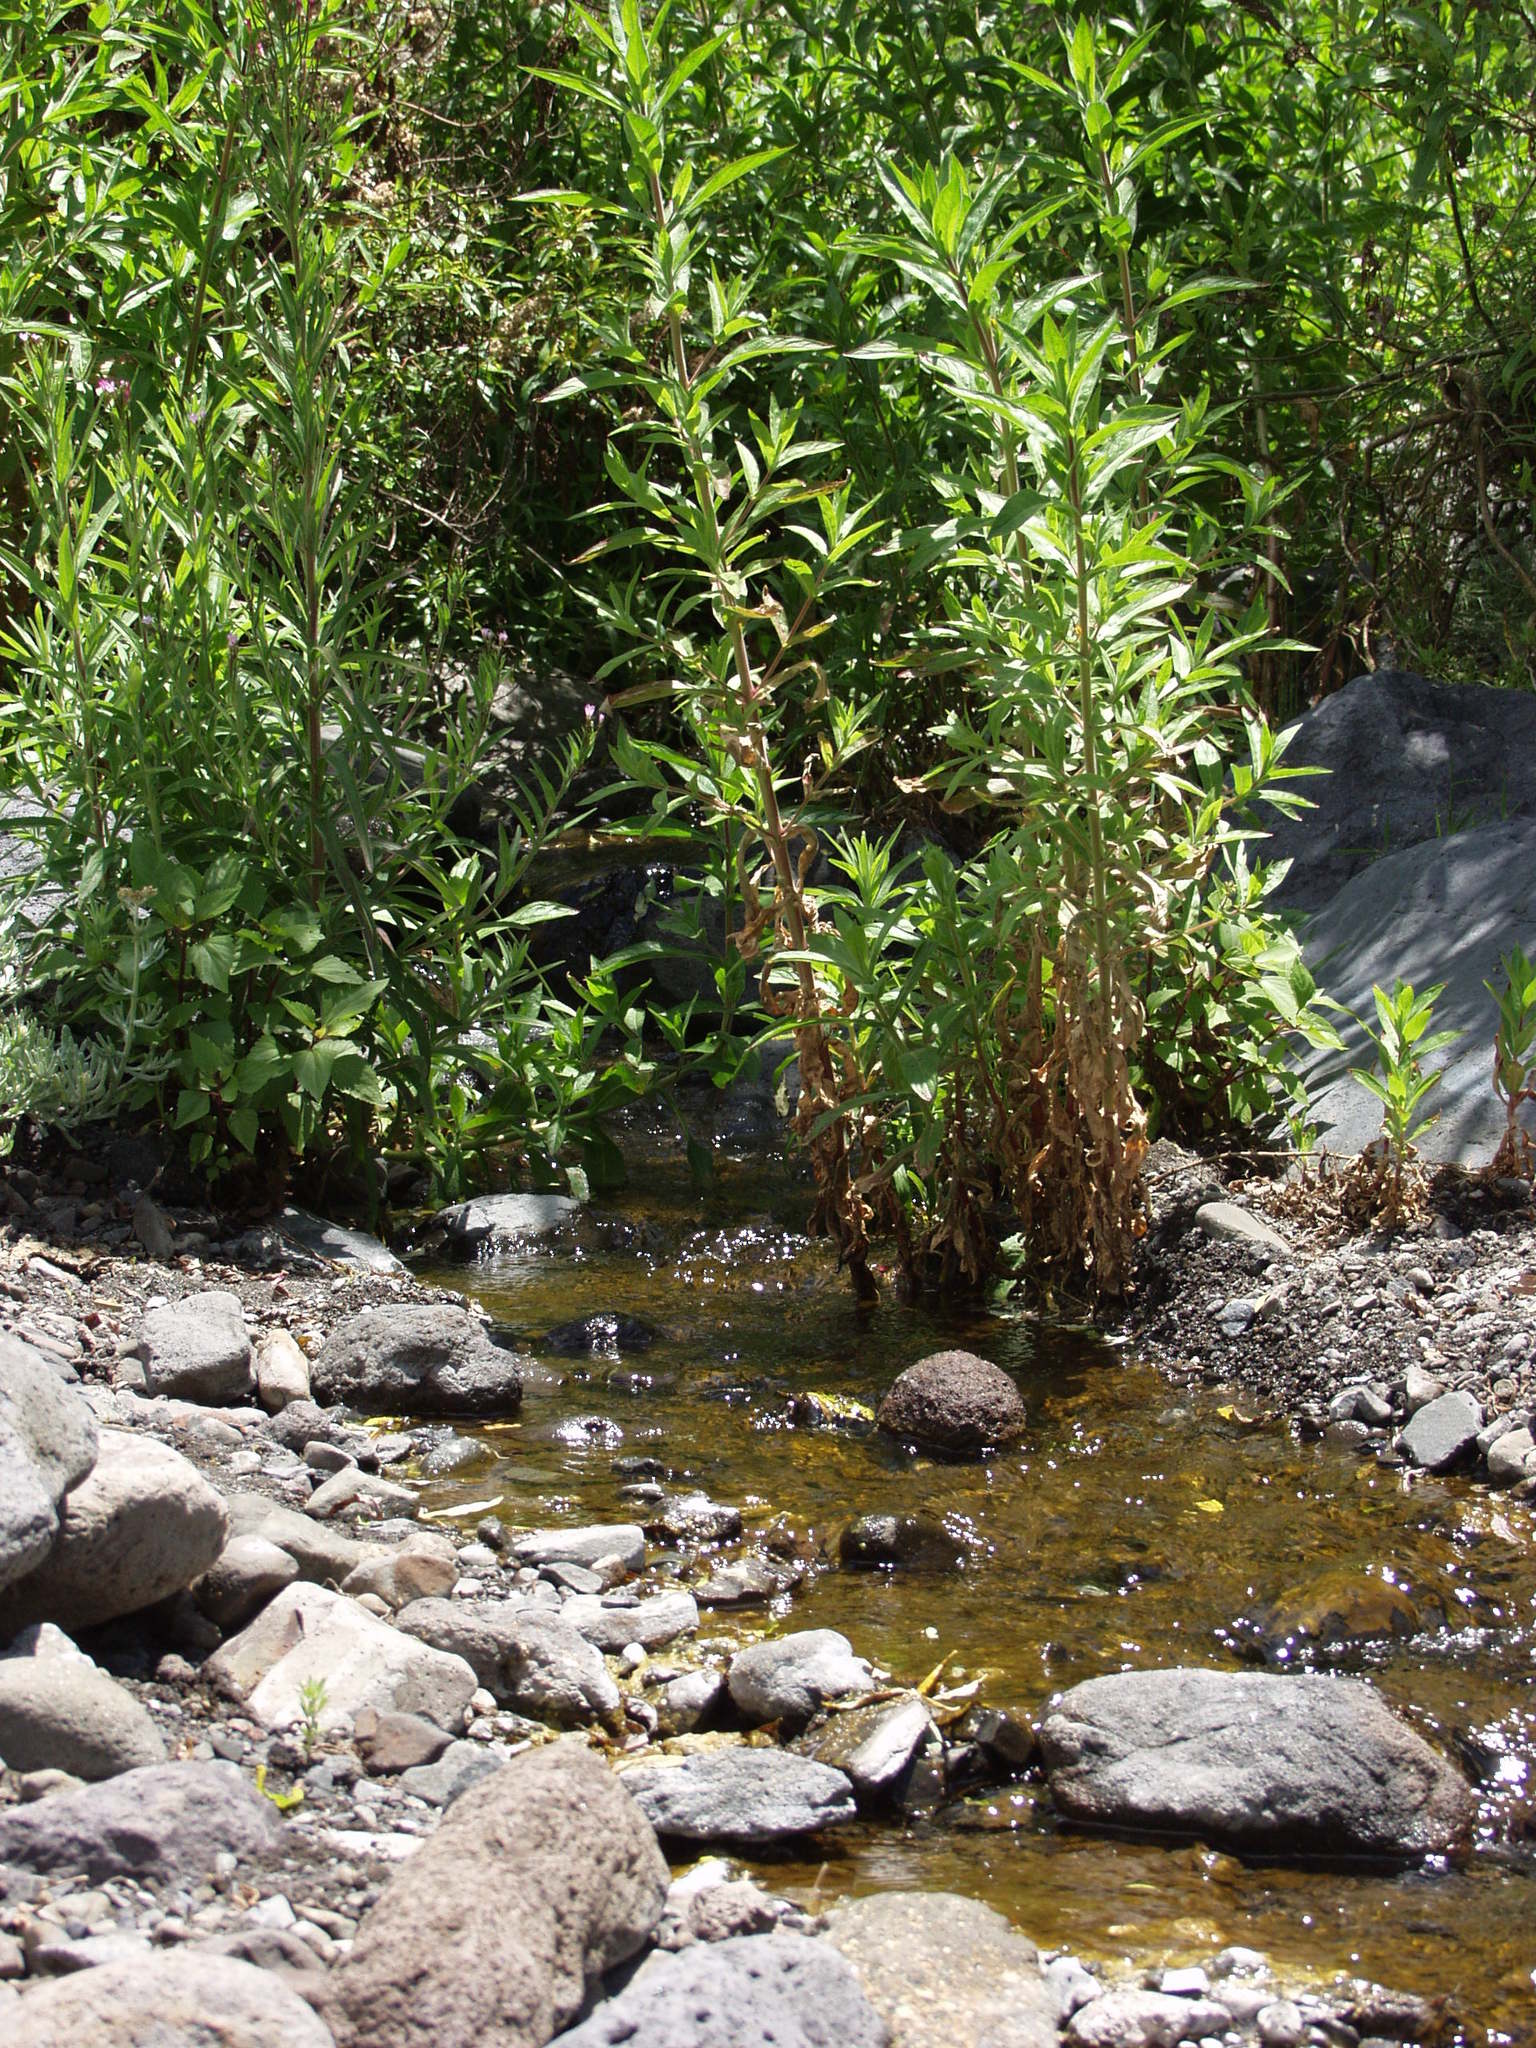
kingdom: Plantae
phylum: Tracheophyta
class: Magnoliopsida
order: Myrtales
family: Onagraceae
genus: Epilobium
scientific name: Epilobium hirsutum
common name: Great willowherb
